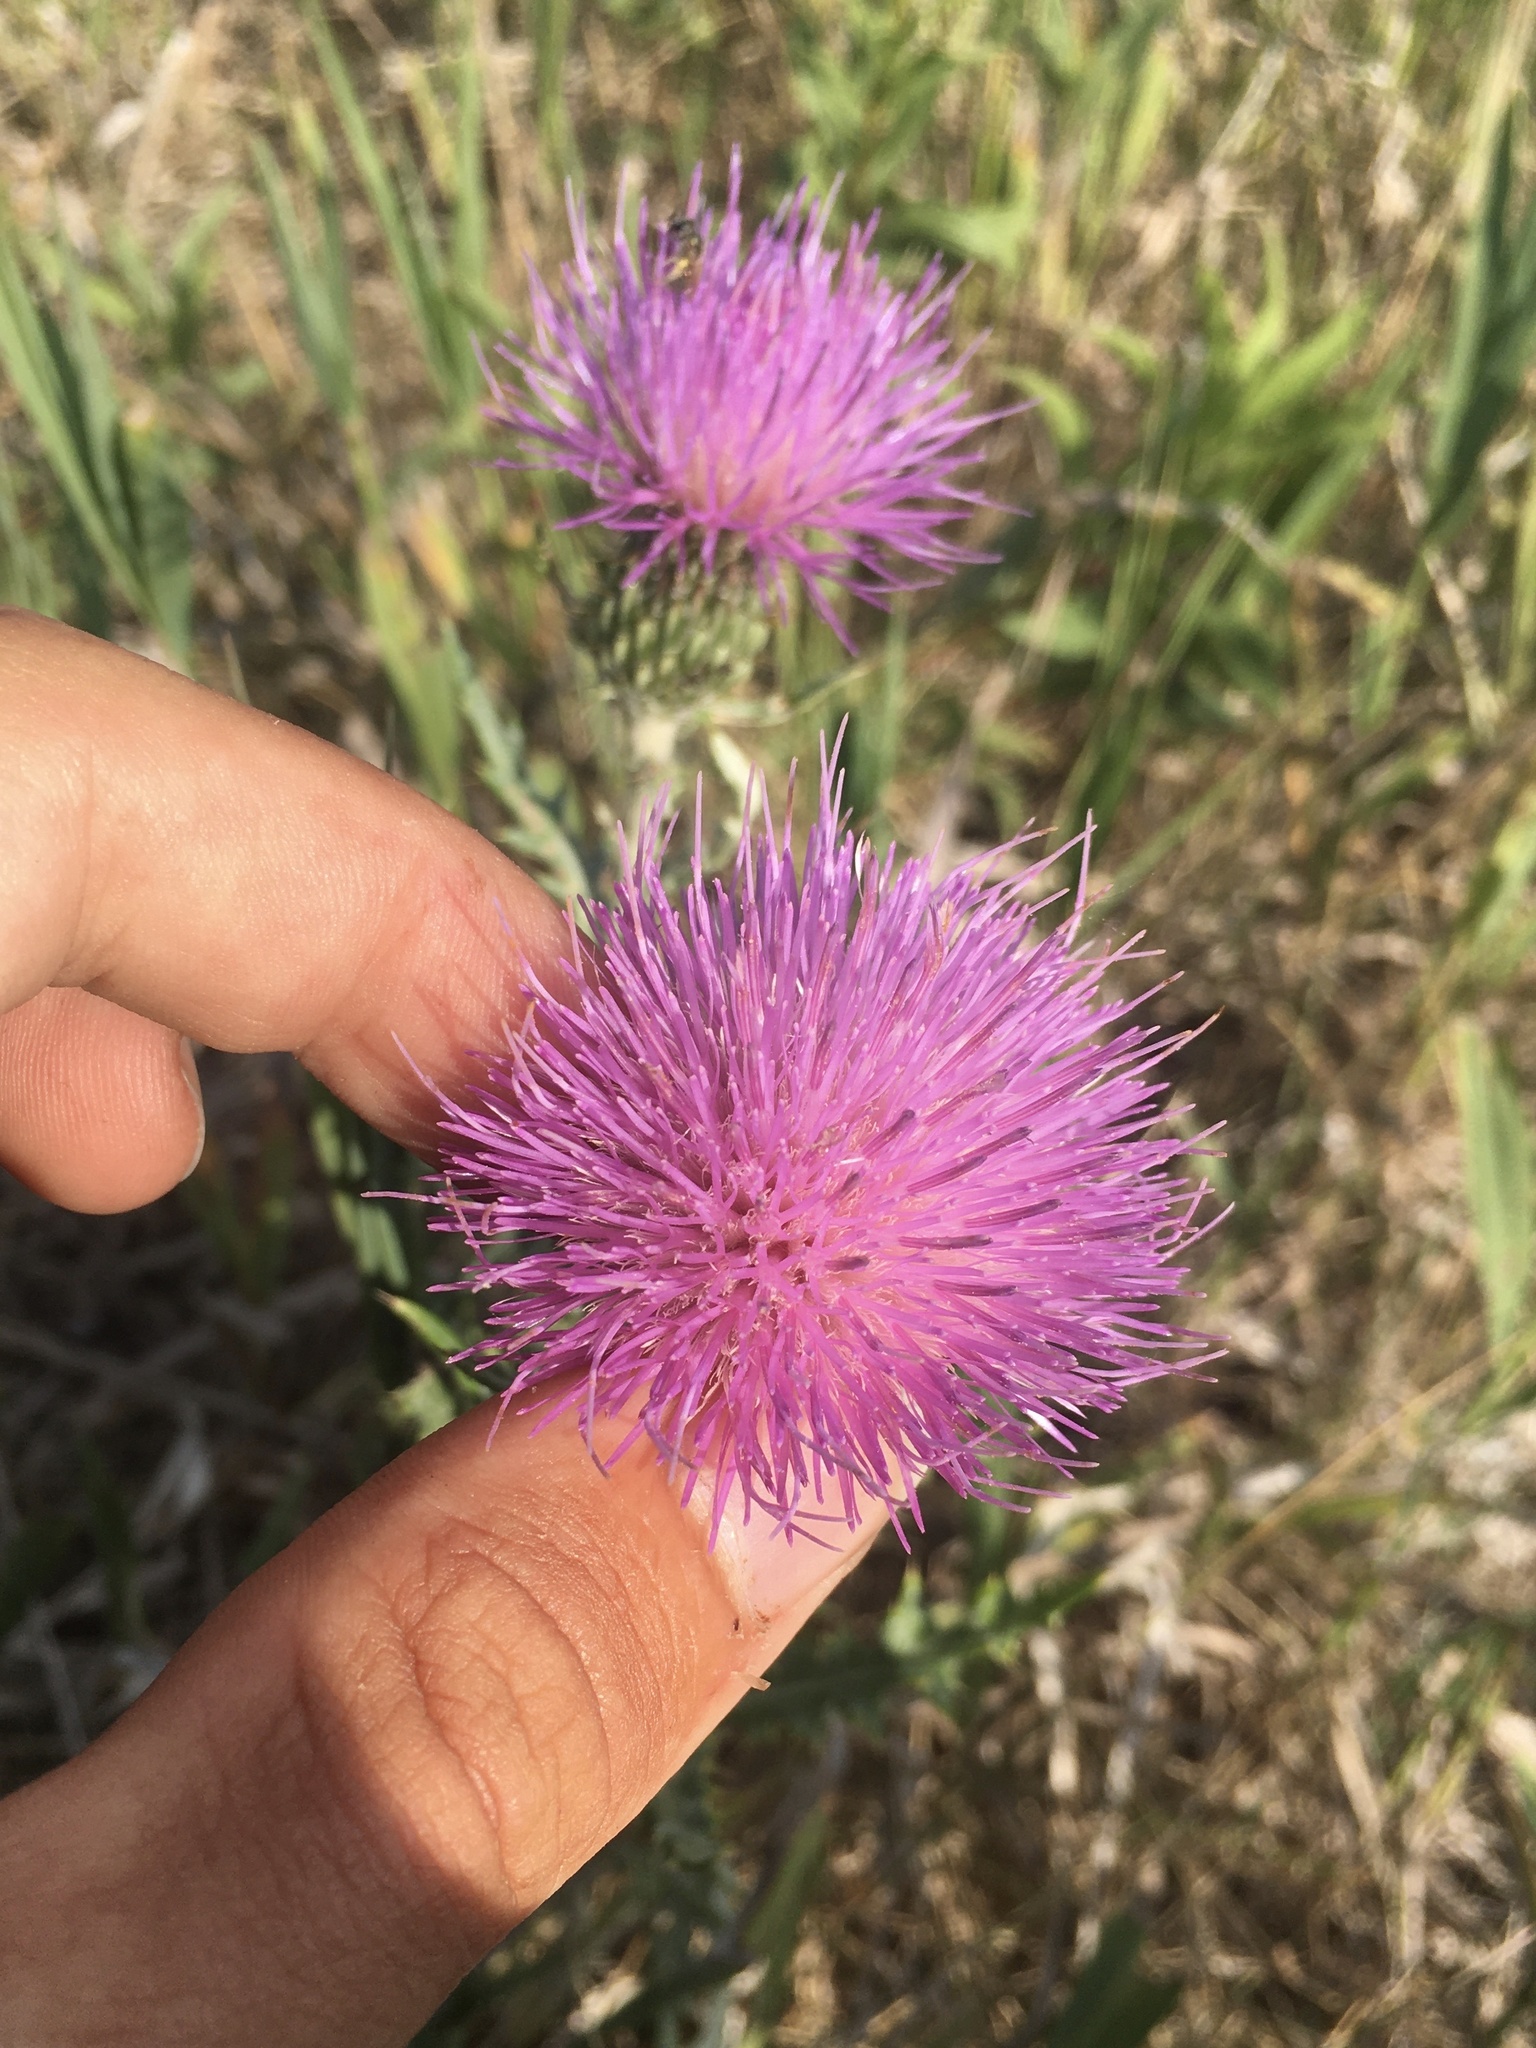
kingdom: Plantae
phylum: Tracheophyta
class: Magnoliopsida
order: Asterales
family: Asteraceae
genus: Cirsium
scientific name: Cirsium flodmanii
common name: Flodman's thistle
